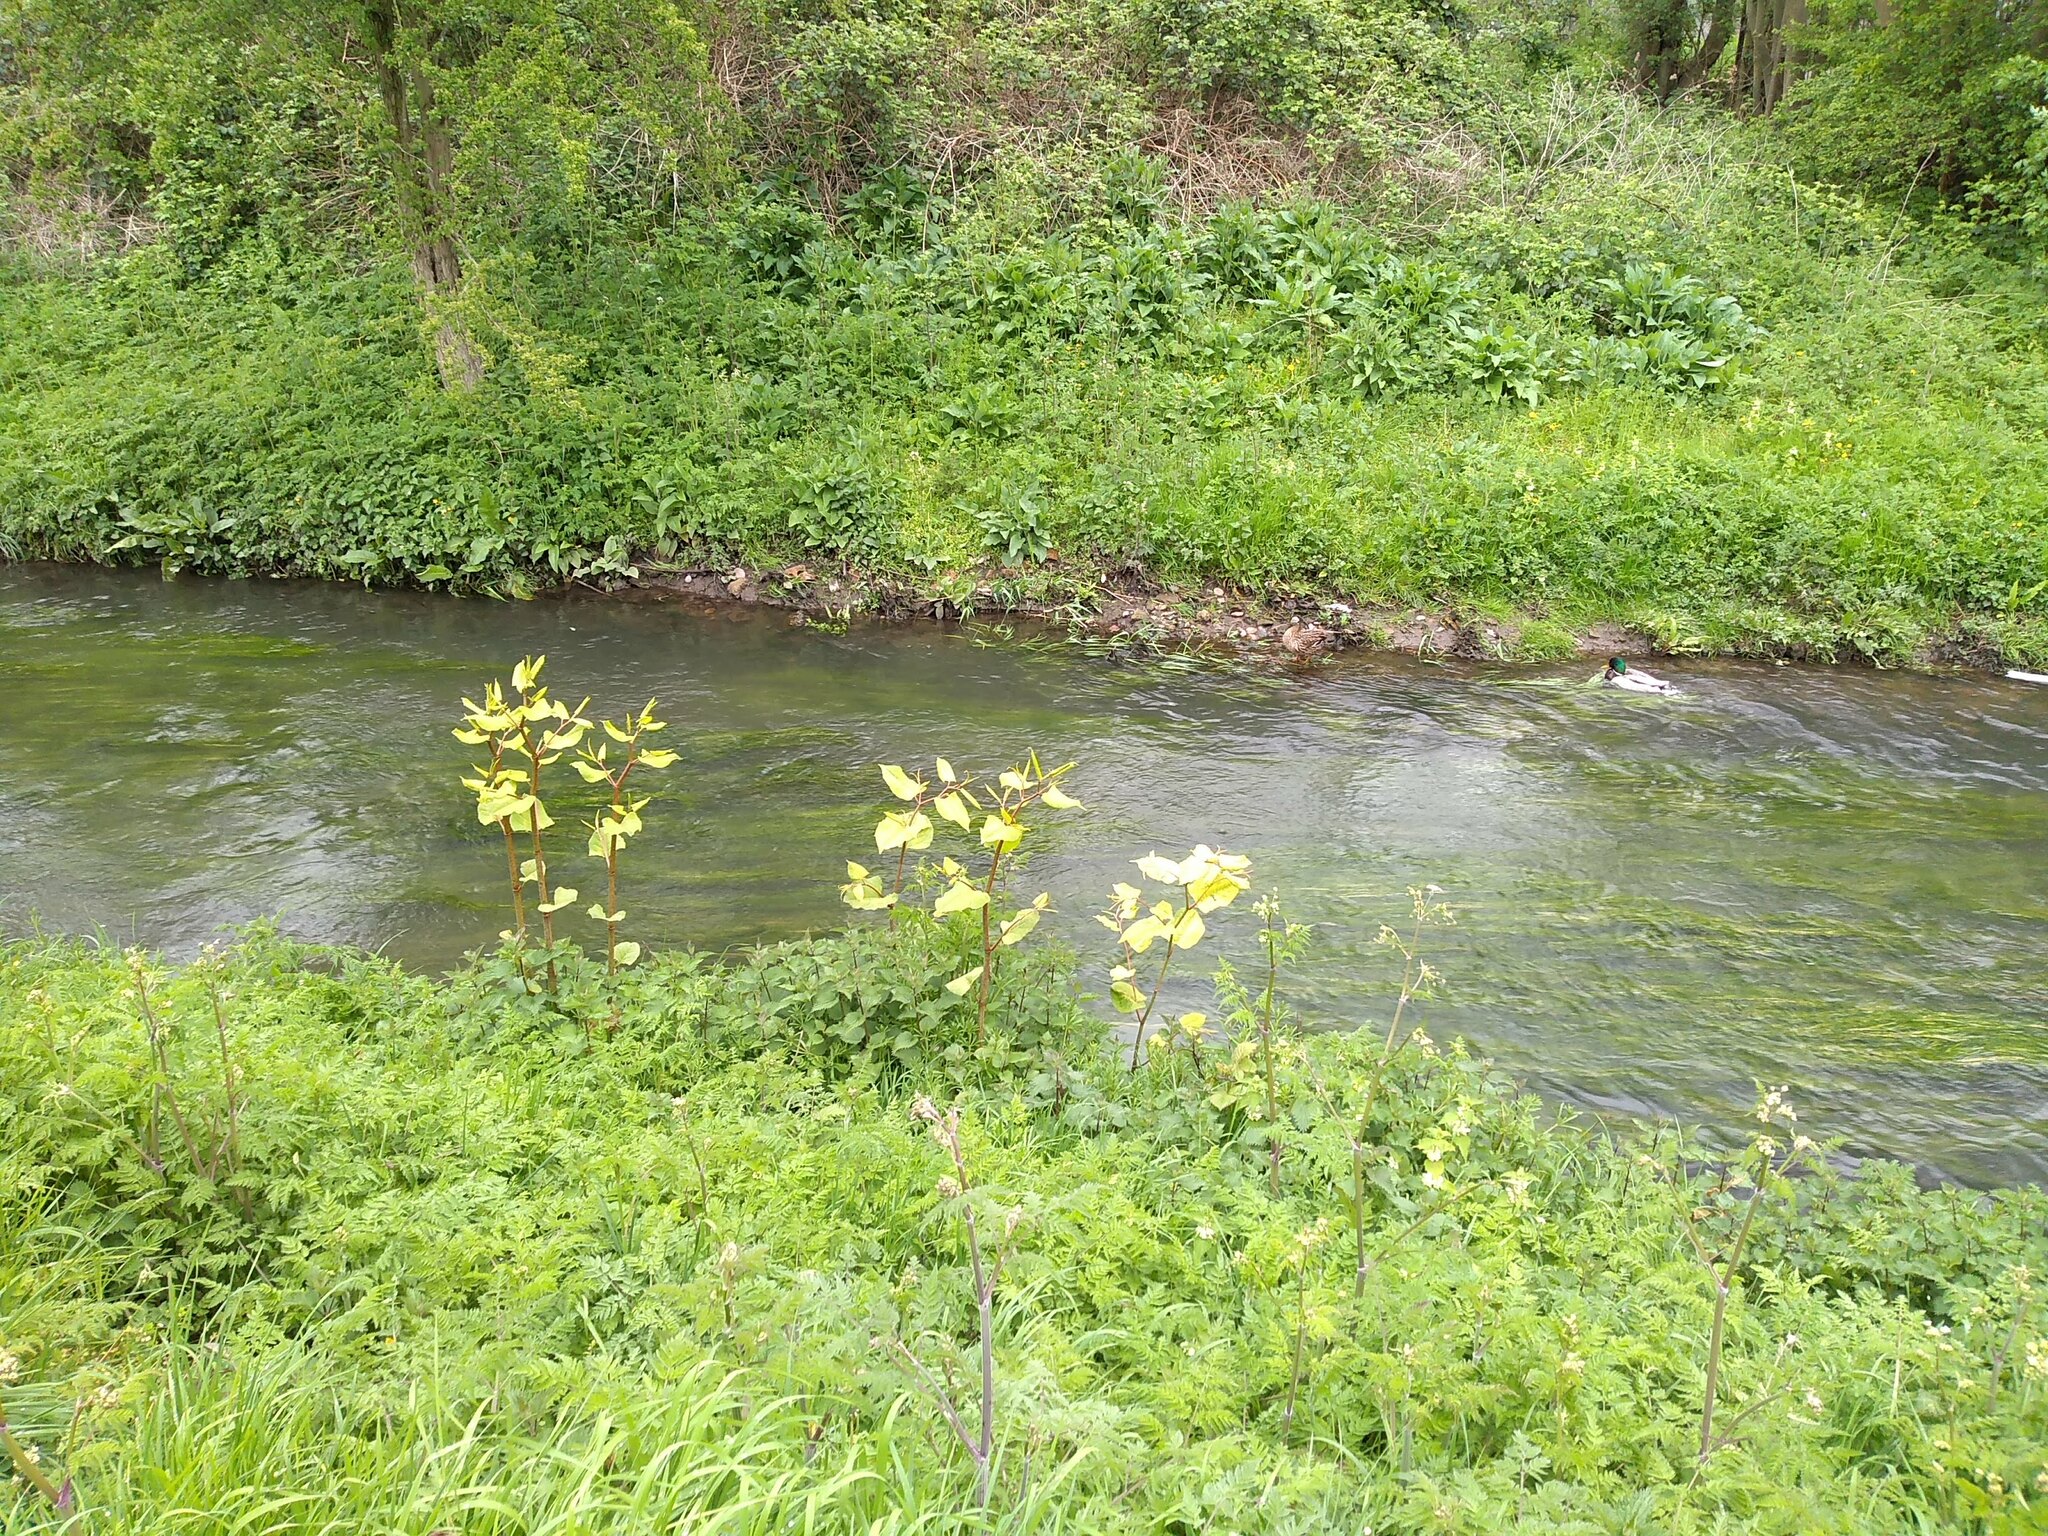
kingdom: Plantae
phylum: Tracheophyta
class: Magnoliopsida
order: Caryophyllales
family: Polygonaceae
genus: Reynoutria
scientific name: Reynoutria japonica
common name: Japanese knotweed
